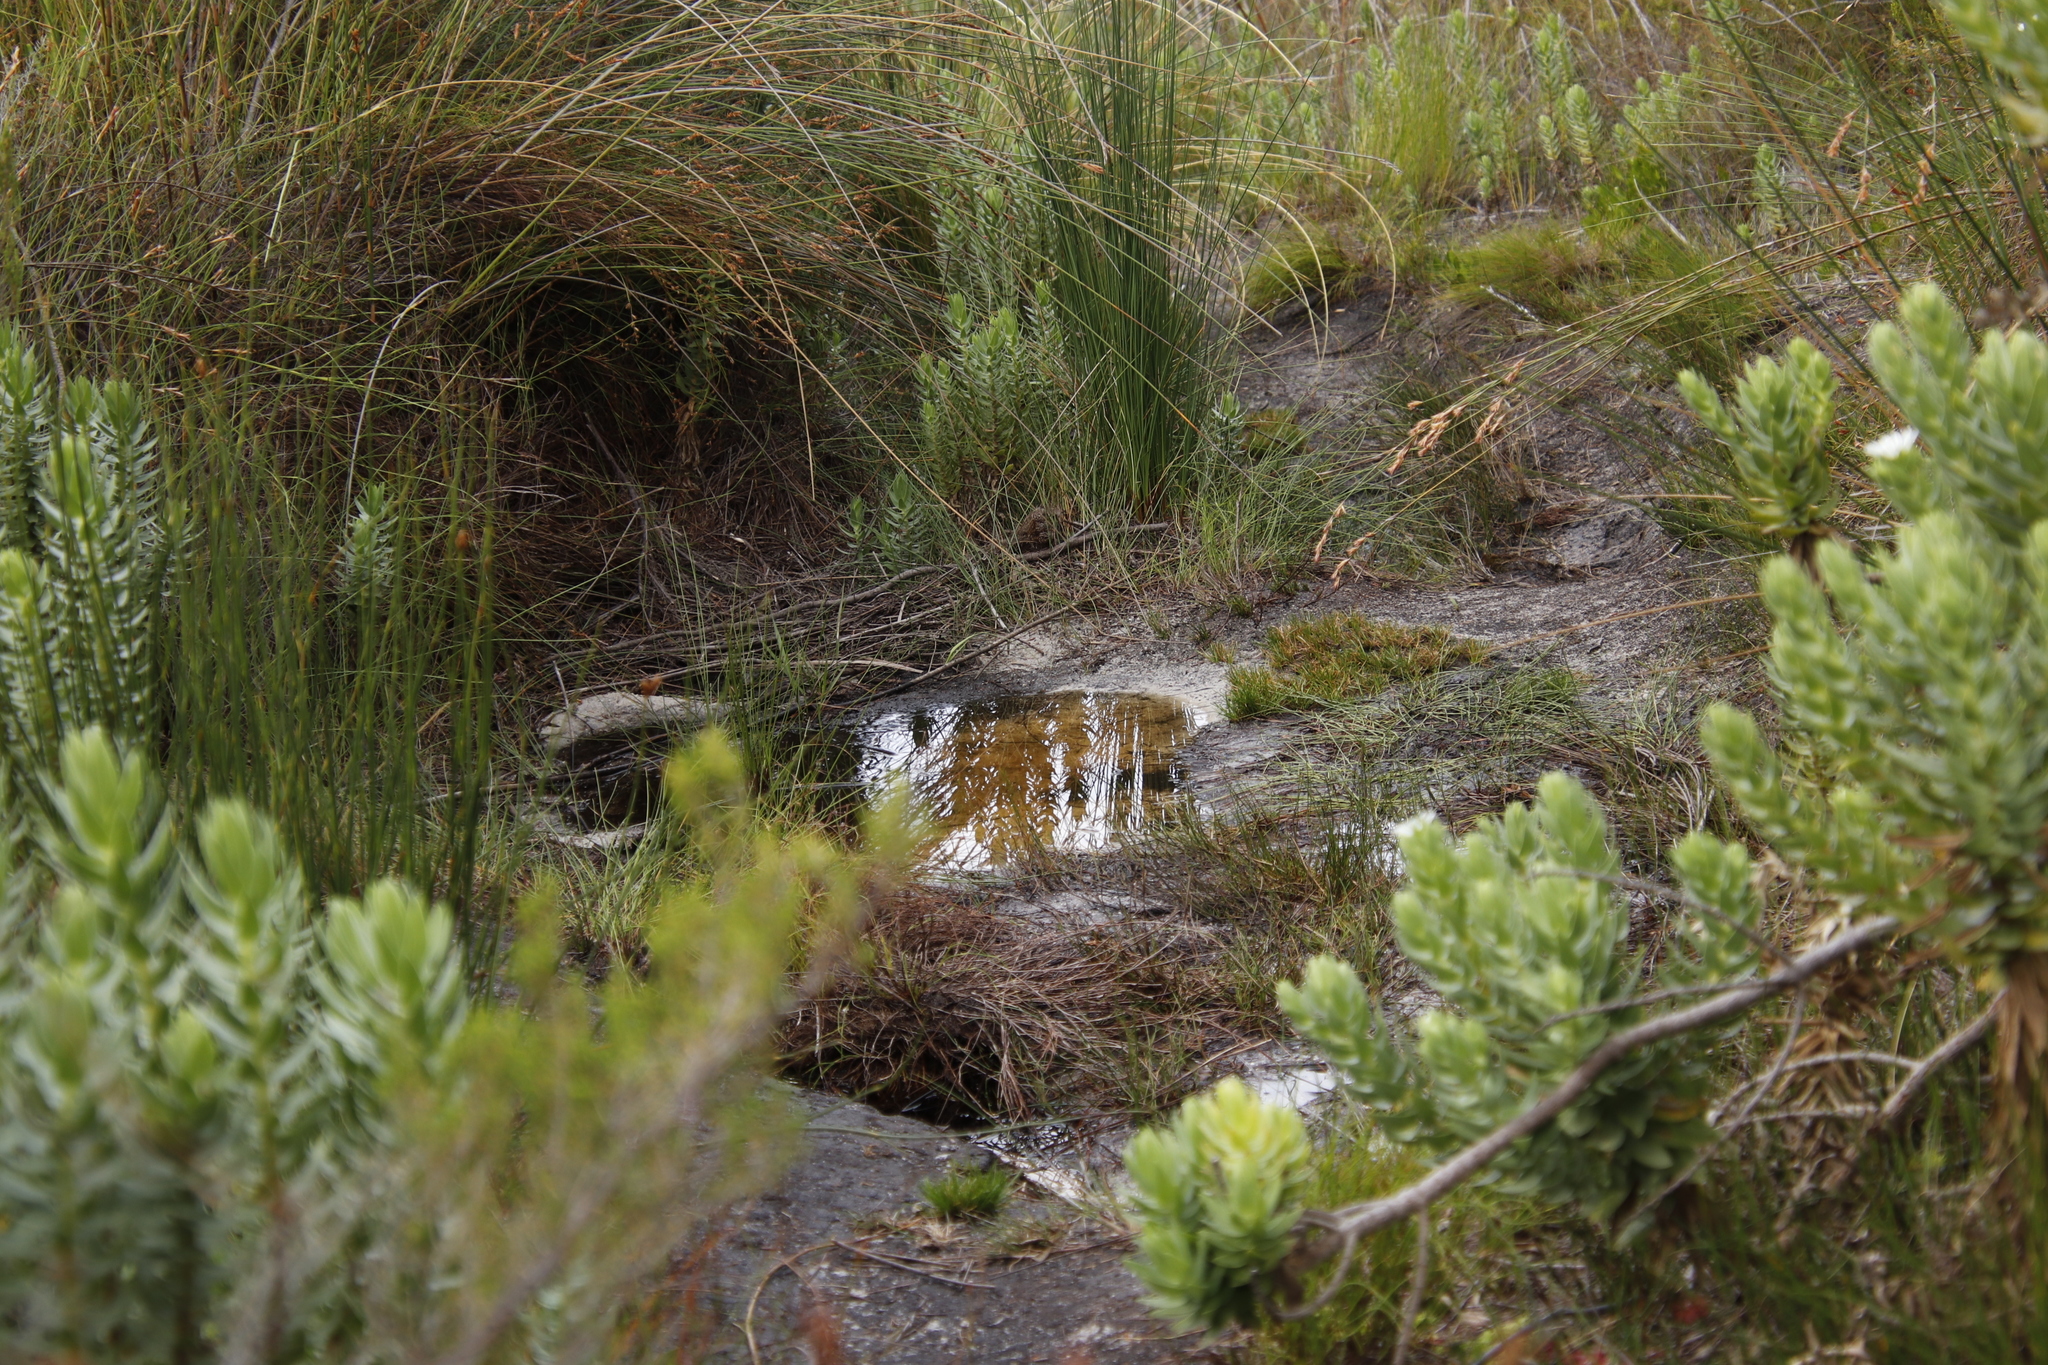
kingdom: Animalia
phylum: Chordata
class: Aves
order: Passeriformes
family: Nectariniidae
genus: Anthobaphes
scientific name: Anthobaphes violacea
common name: Orange-breasted sunbird
